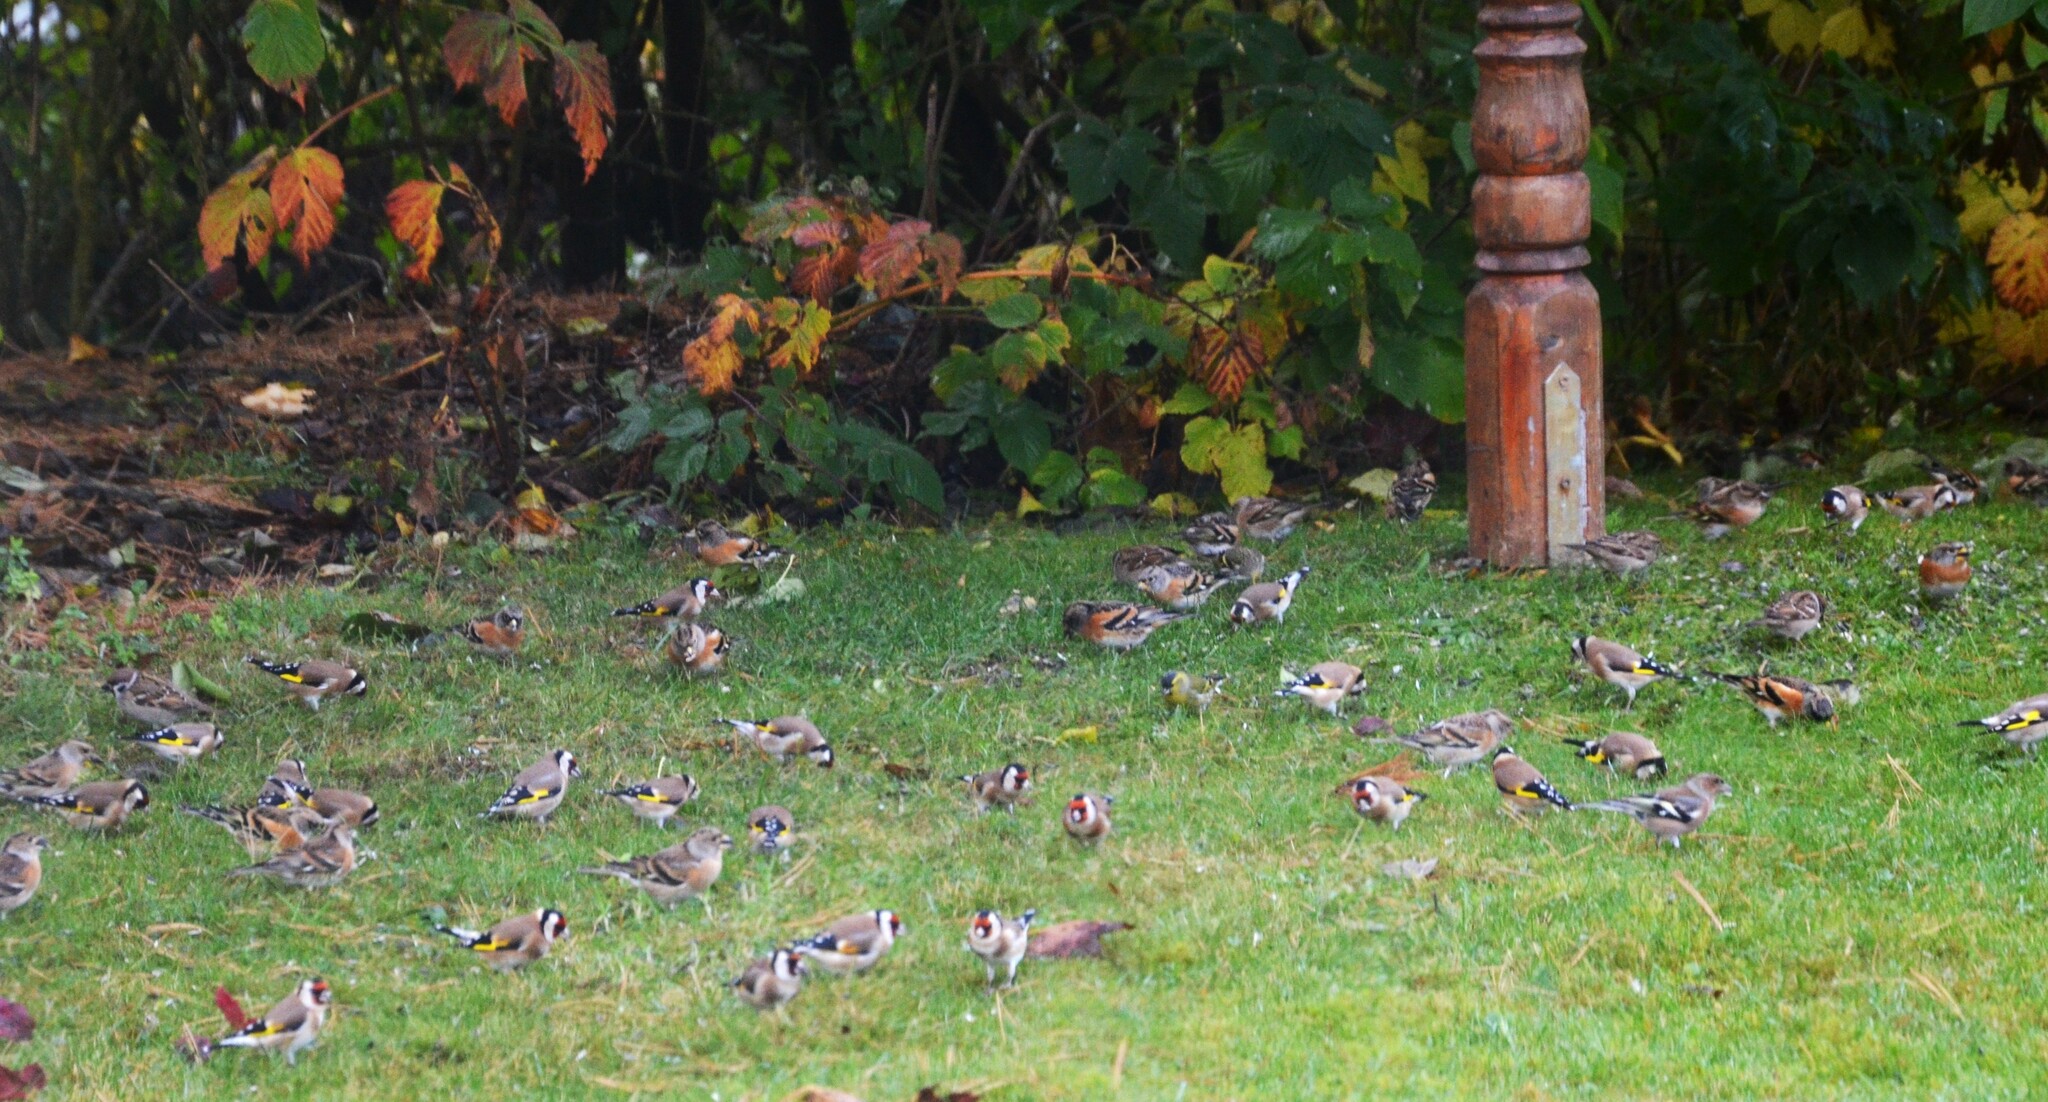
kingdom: Animalia
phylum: Chordata
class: Aves
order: Passeriformes
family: Fringillidae
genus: Carduelis
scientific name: Carduelis carduelis
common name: European goldfinch
